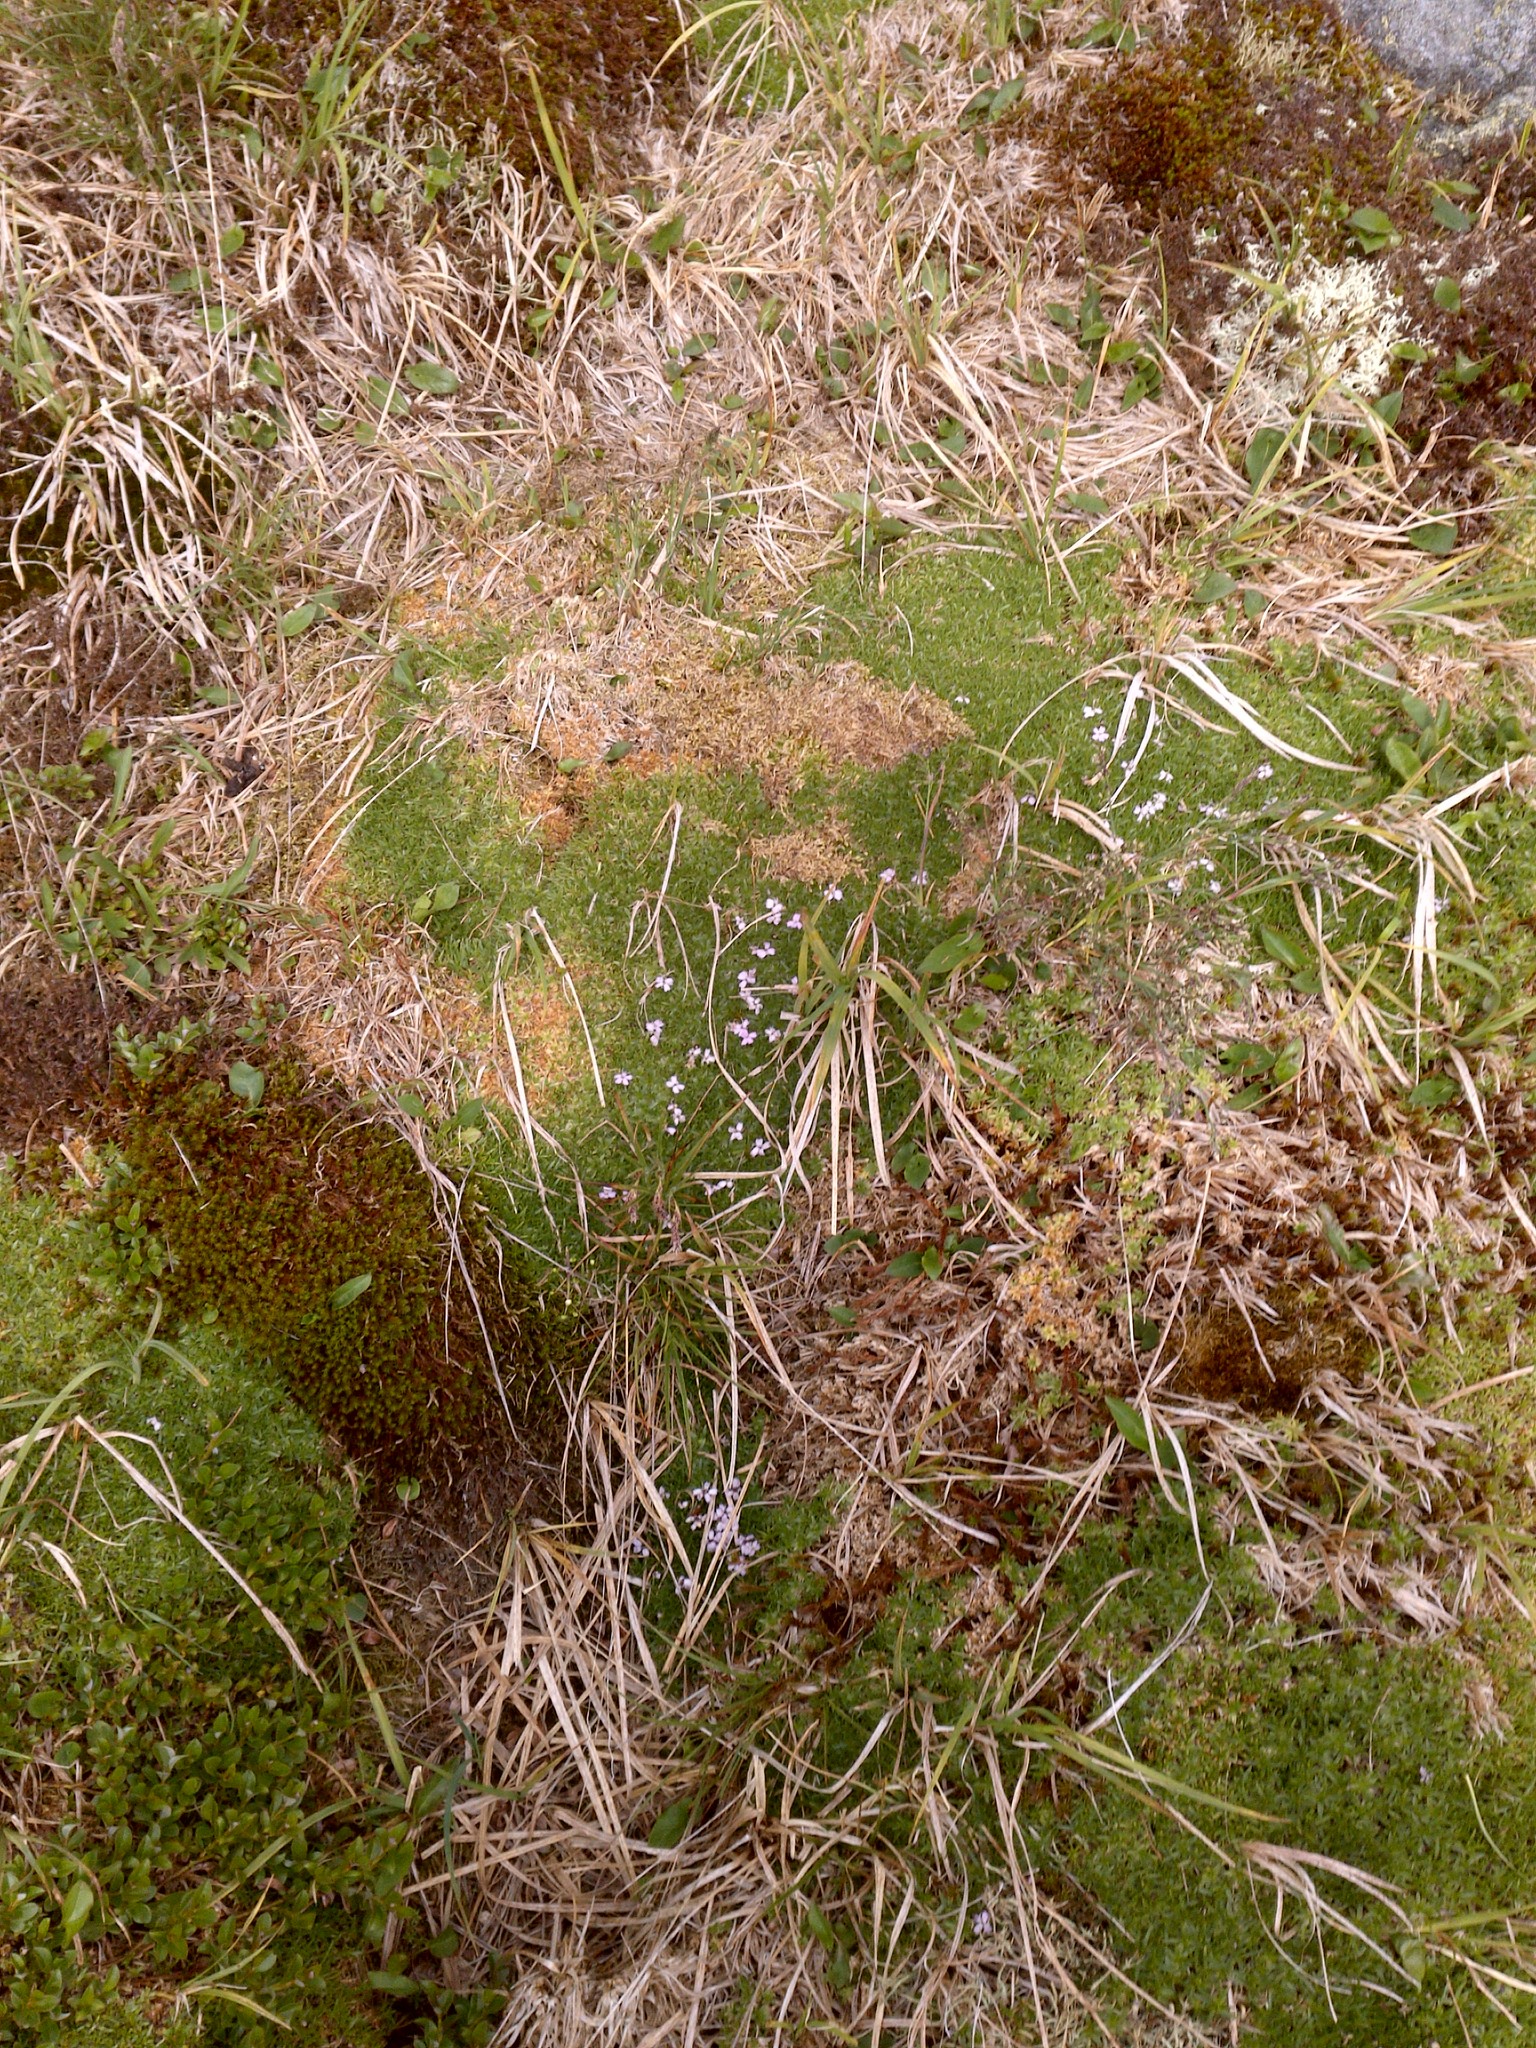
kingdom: Plantae
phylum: Tracheophyta
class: Magnoliopsida
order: Caryophyllales
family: Caryophyllaceae
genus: Silene
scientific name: Silene acaulis
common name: Moss campion
